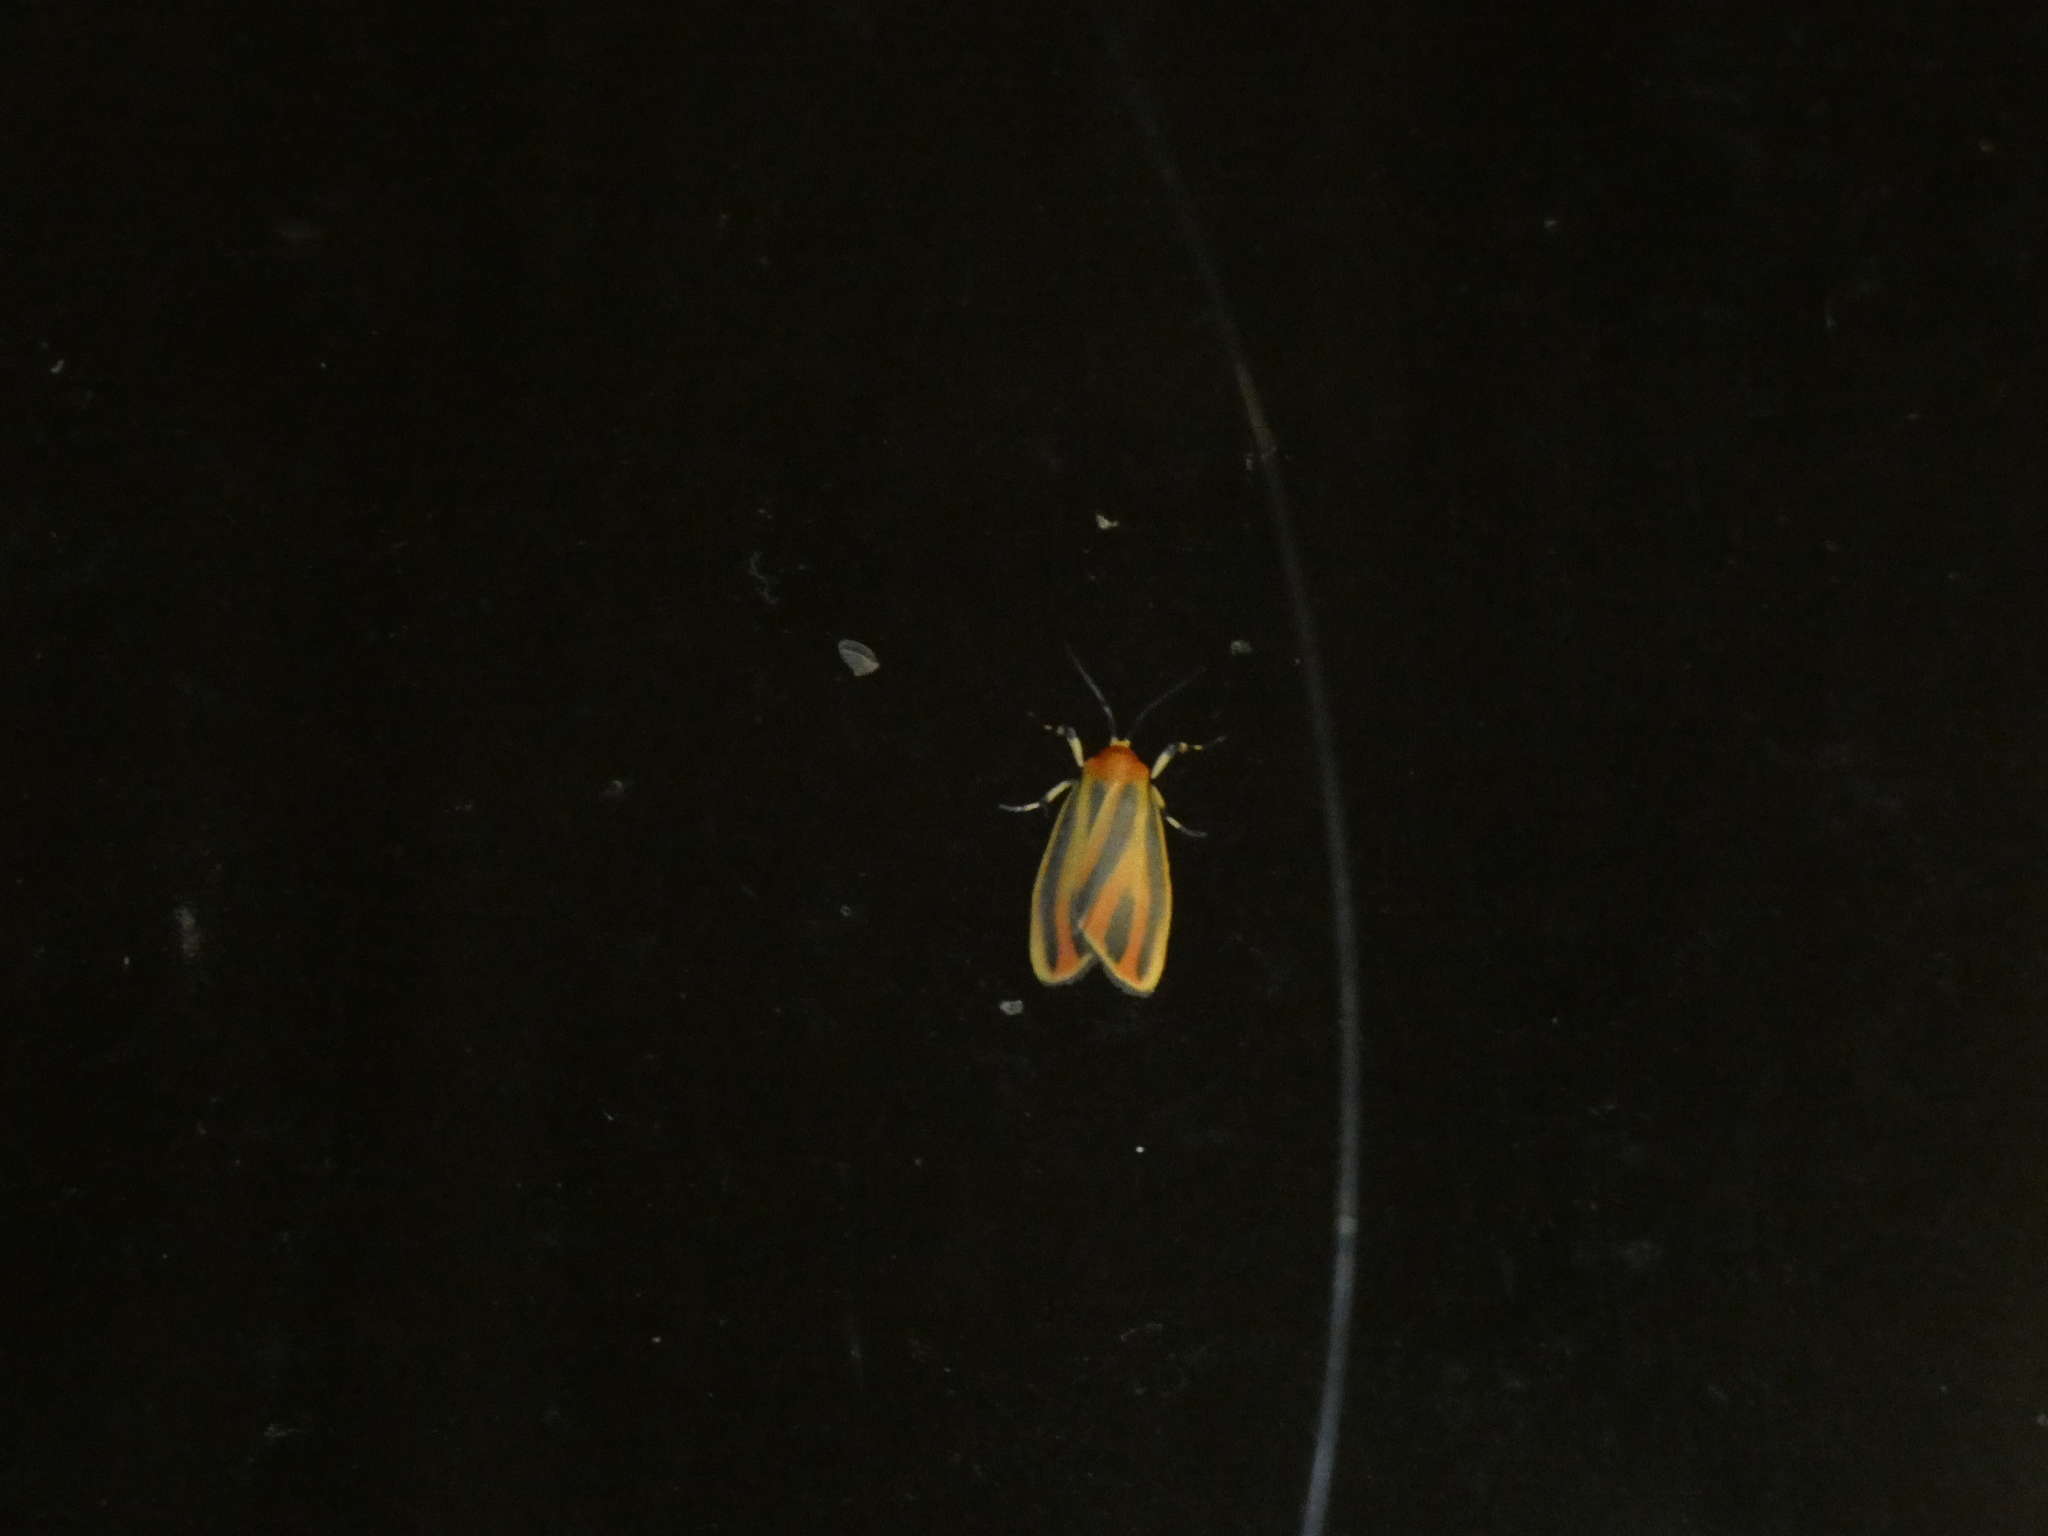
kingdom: Animalia
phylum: Arthropoda
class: Insecta
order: Lepidoptera
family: Erebidae
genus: Hypoprepia
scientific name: Hypoprepia fucosa
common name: Painted lichen moth
